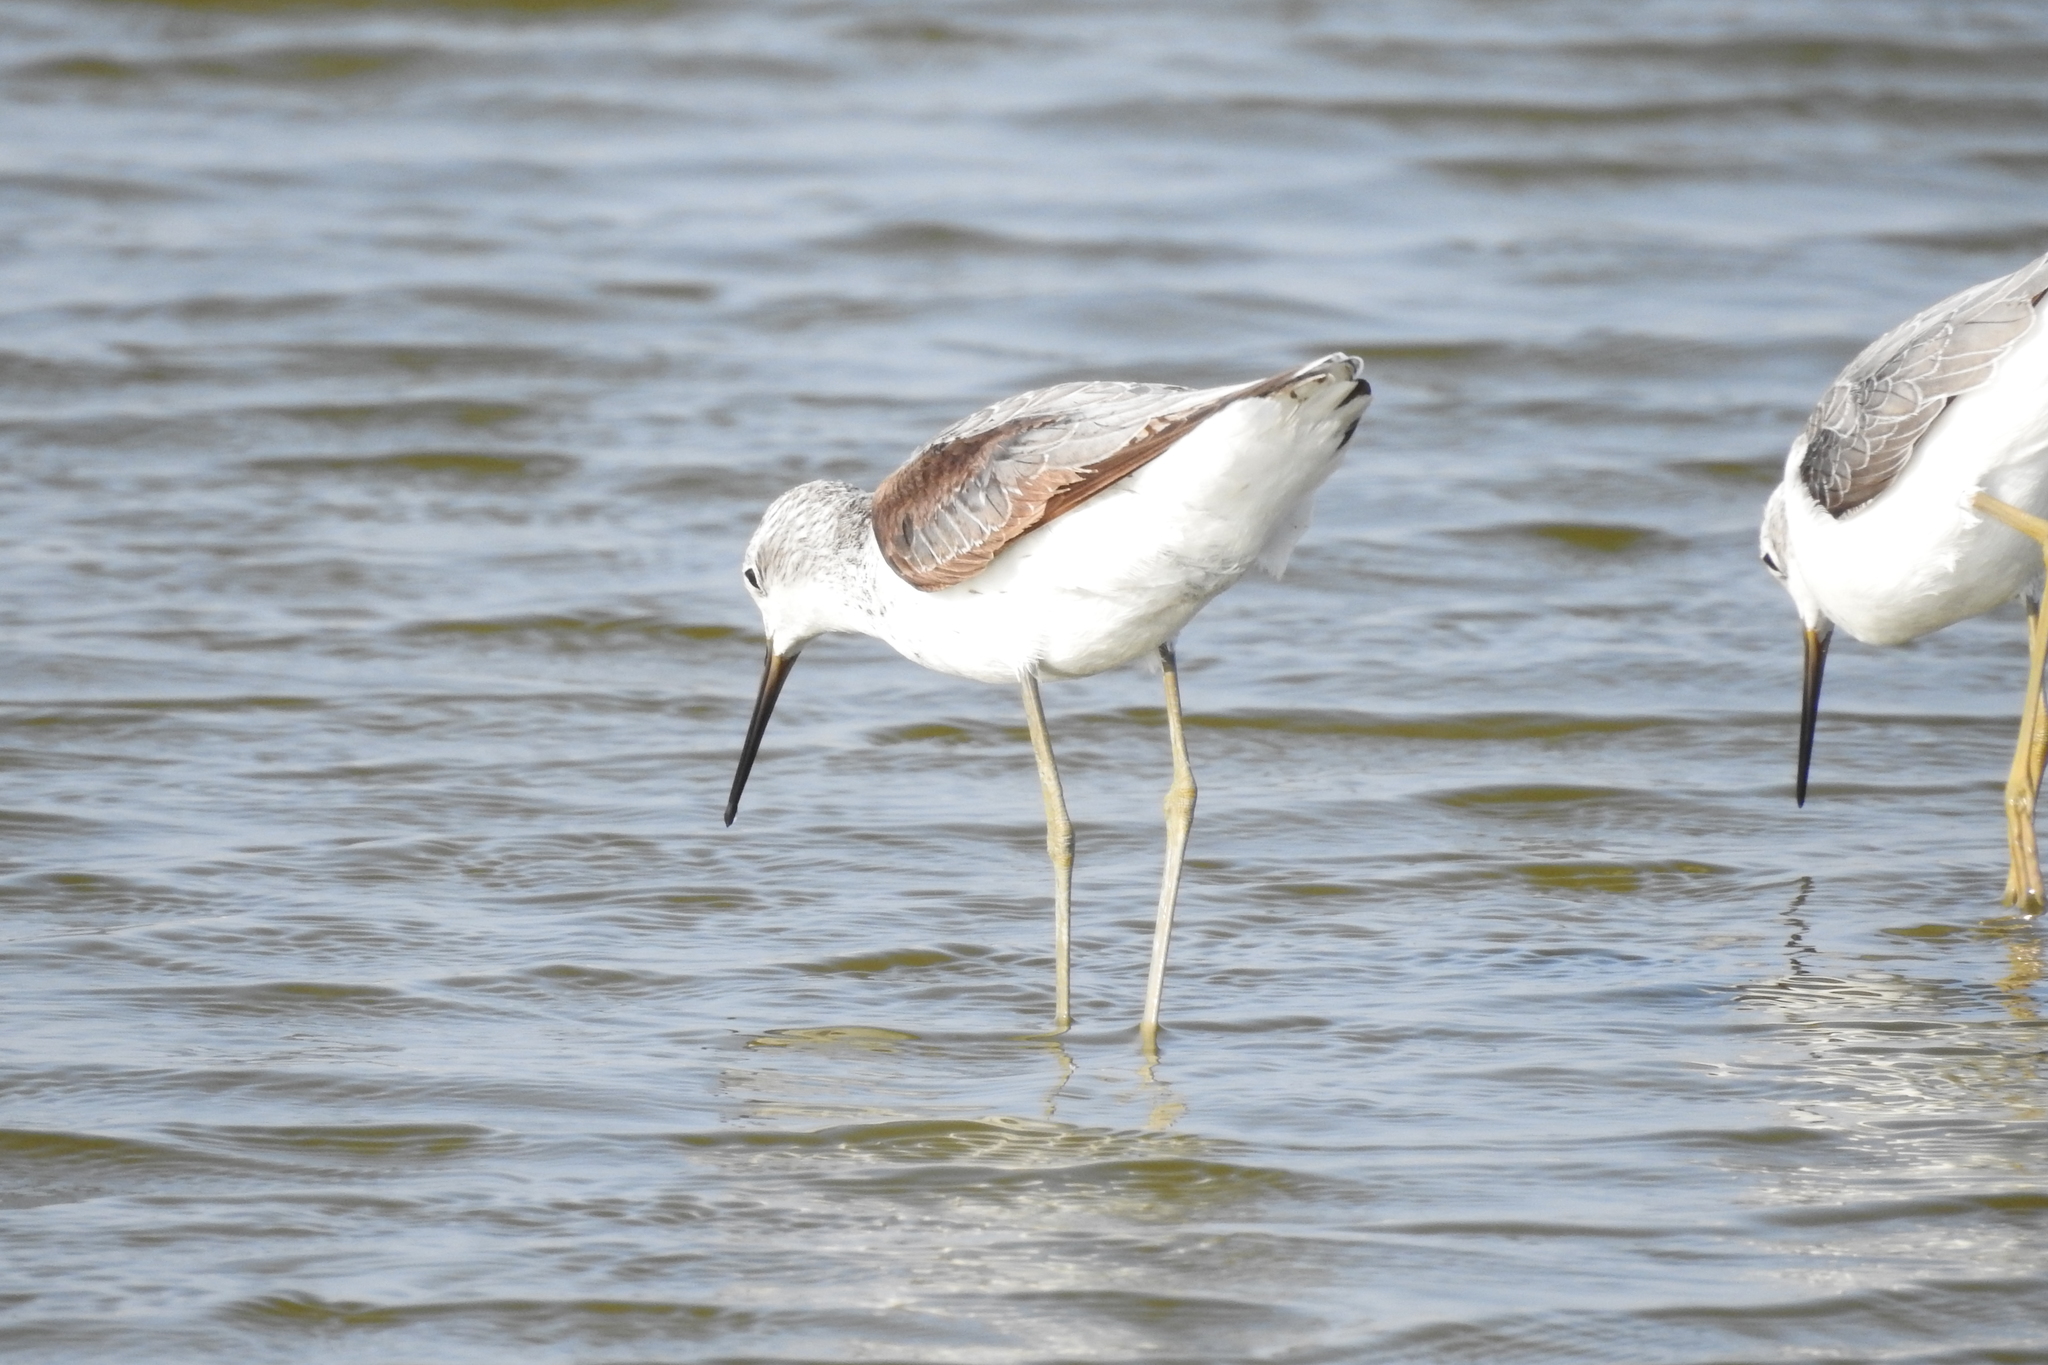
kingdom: Animalia
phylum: Chordata
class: Aves
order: Charadriiformes
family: Scolopacidae
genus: Tringa
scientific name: Tringa stagnatilis
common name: Marsh sandpiper
